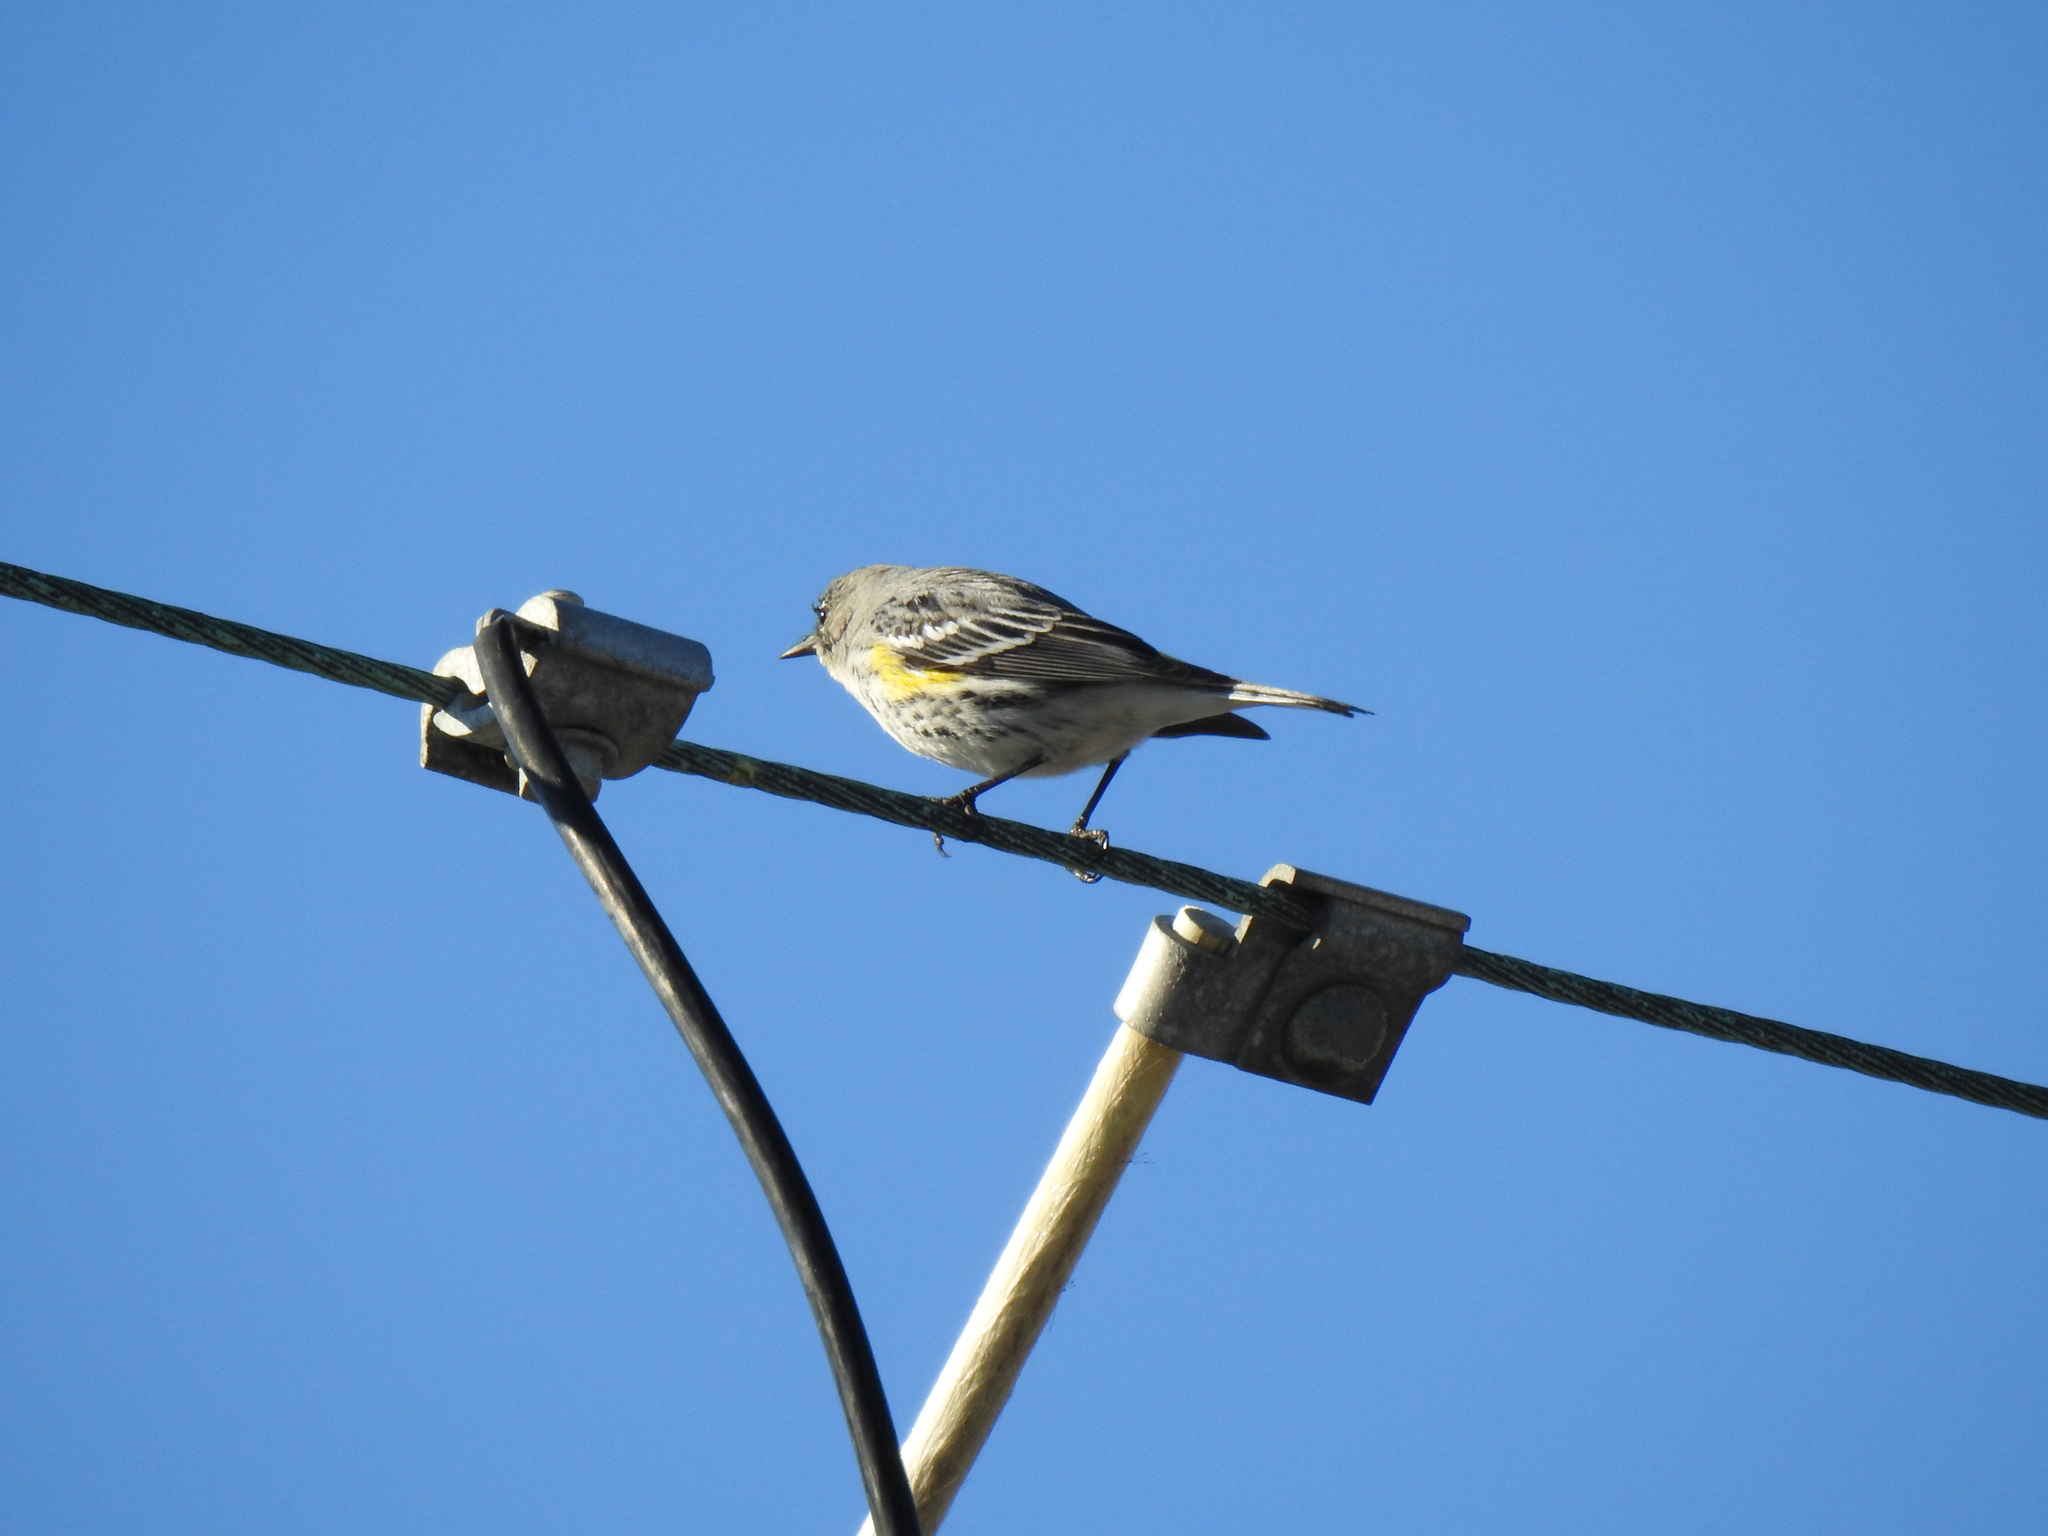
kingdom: Animalia
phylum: Chordata
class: Aves
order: Passeriformes
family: Parulidae
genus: Setophaga
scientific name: Setophaga coronata
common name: Myrtle warbler
